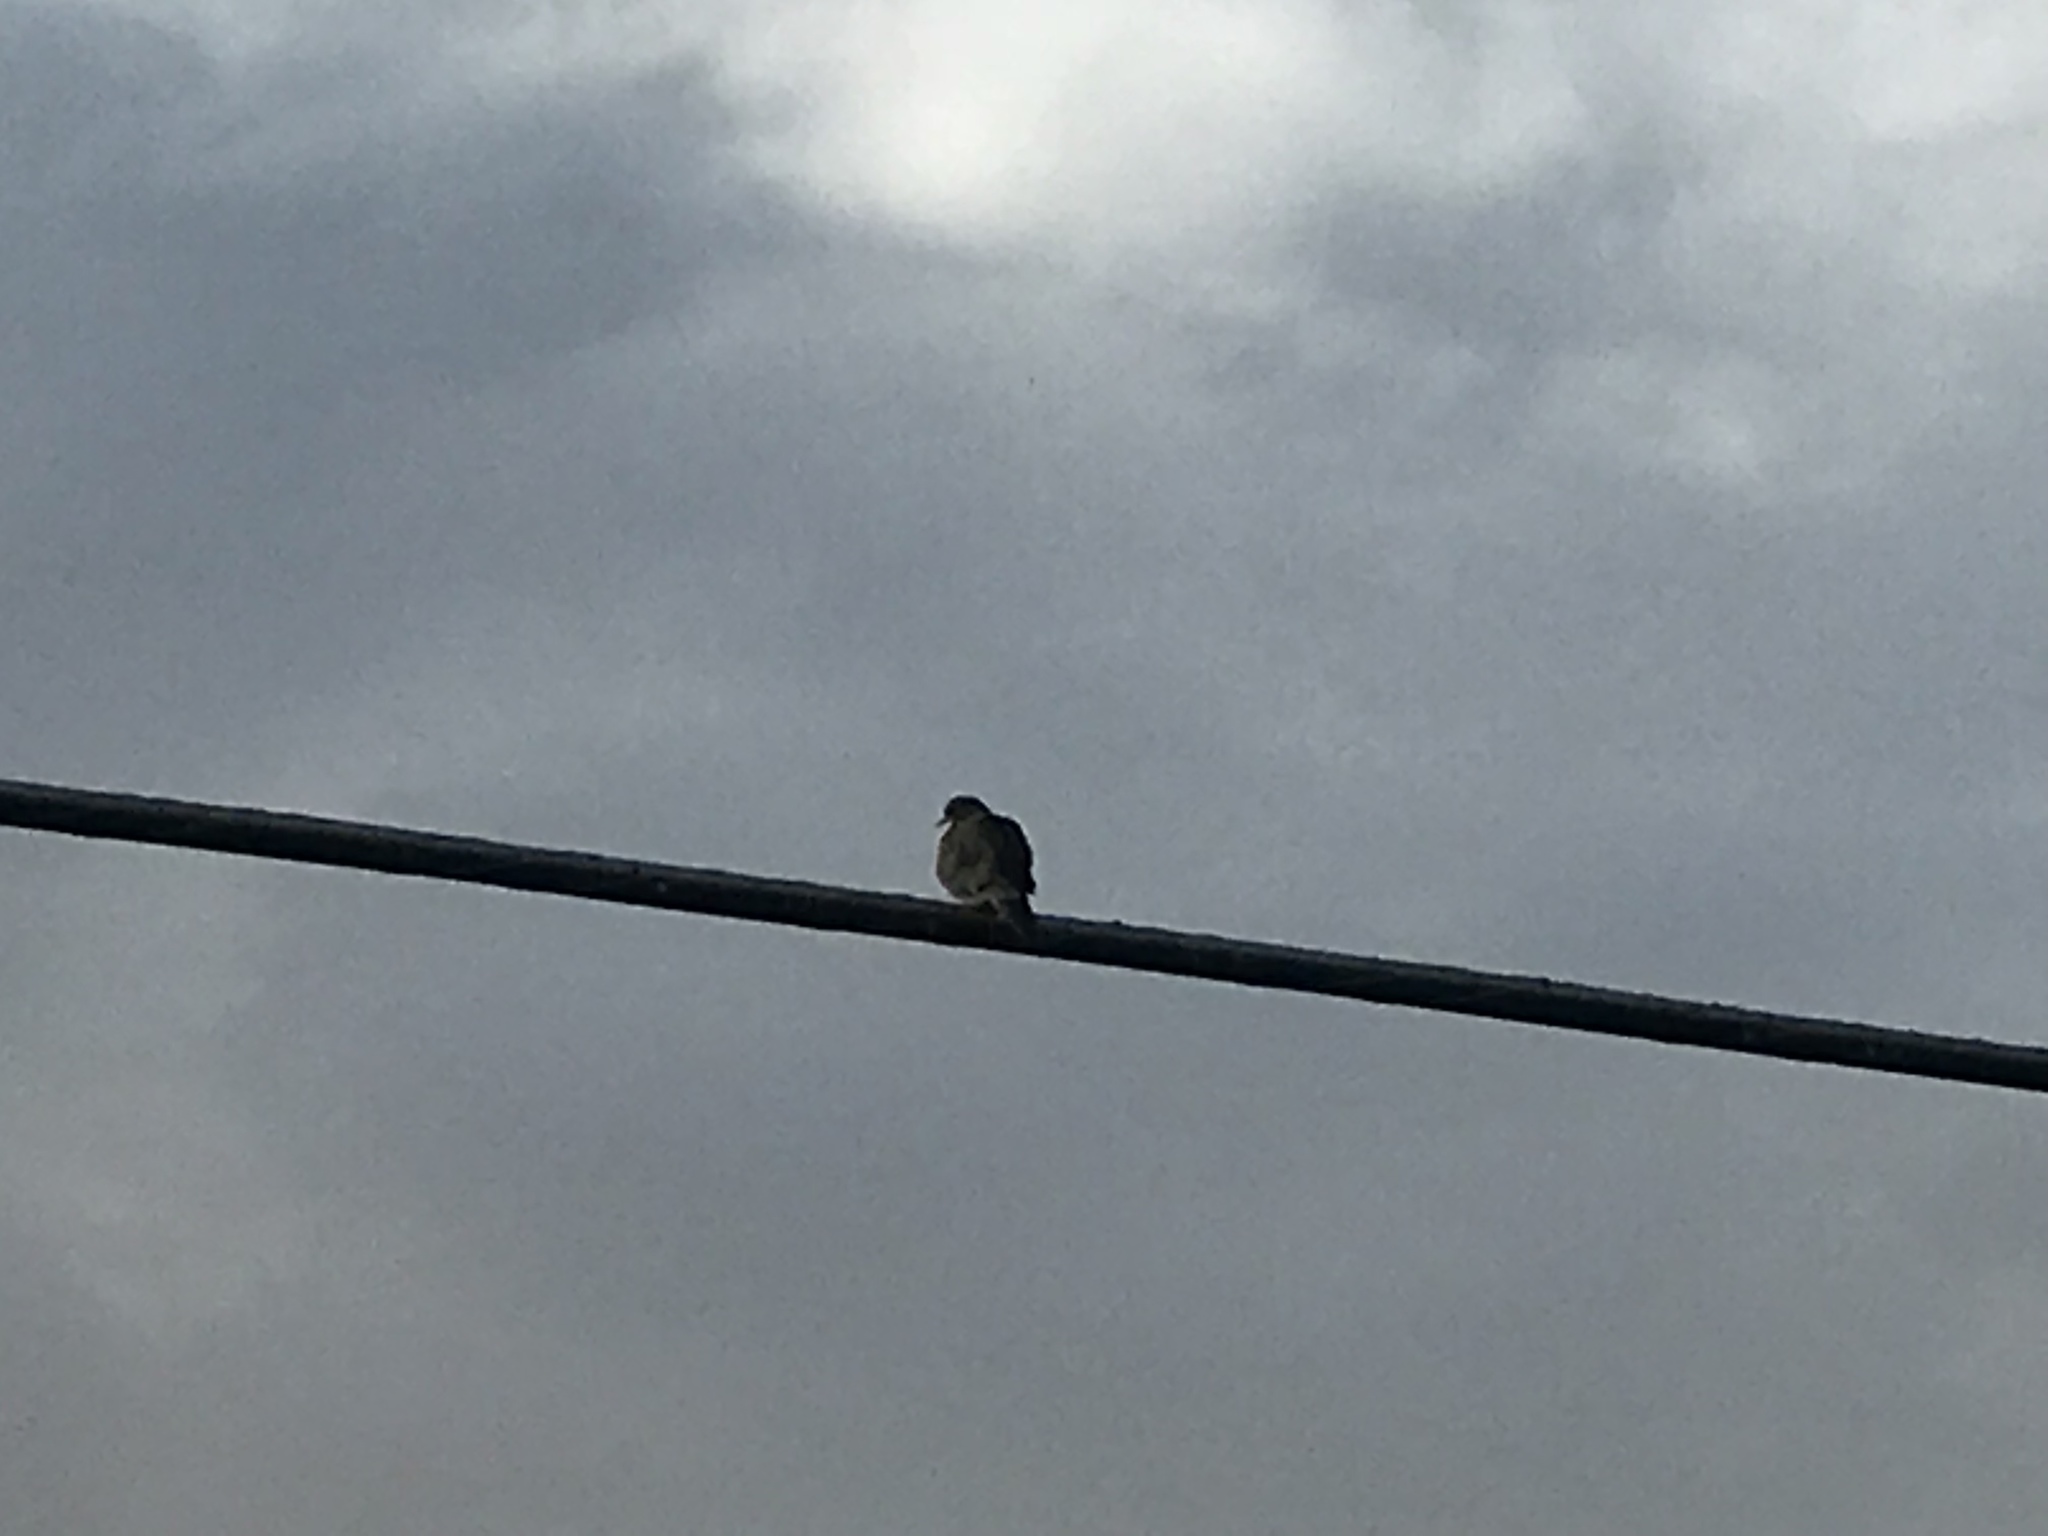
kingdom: Animalia
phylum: Chordata
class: Aves
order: Columbiformes
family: Columbidae
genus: Zenaida
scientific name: Zenaida macroura
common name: Mourning dove
